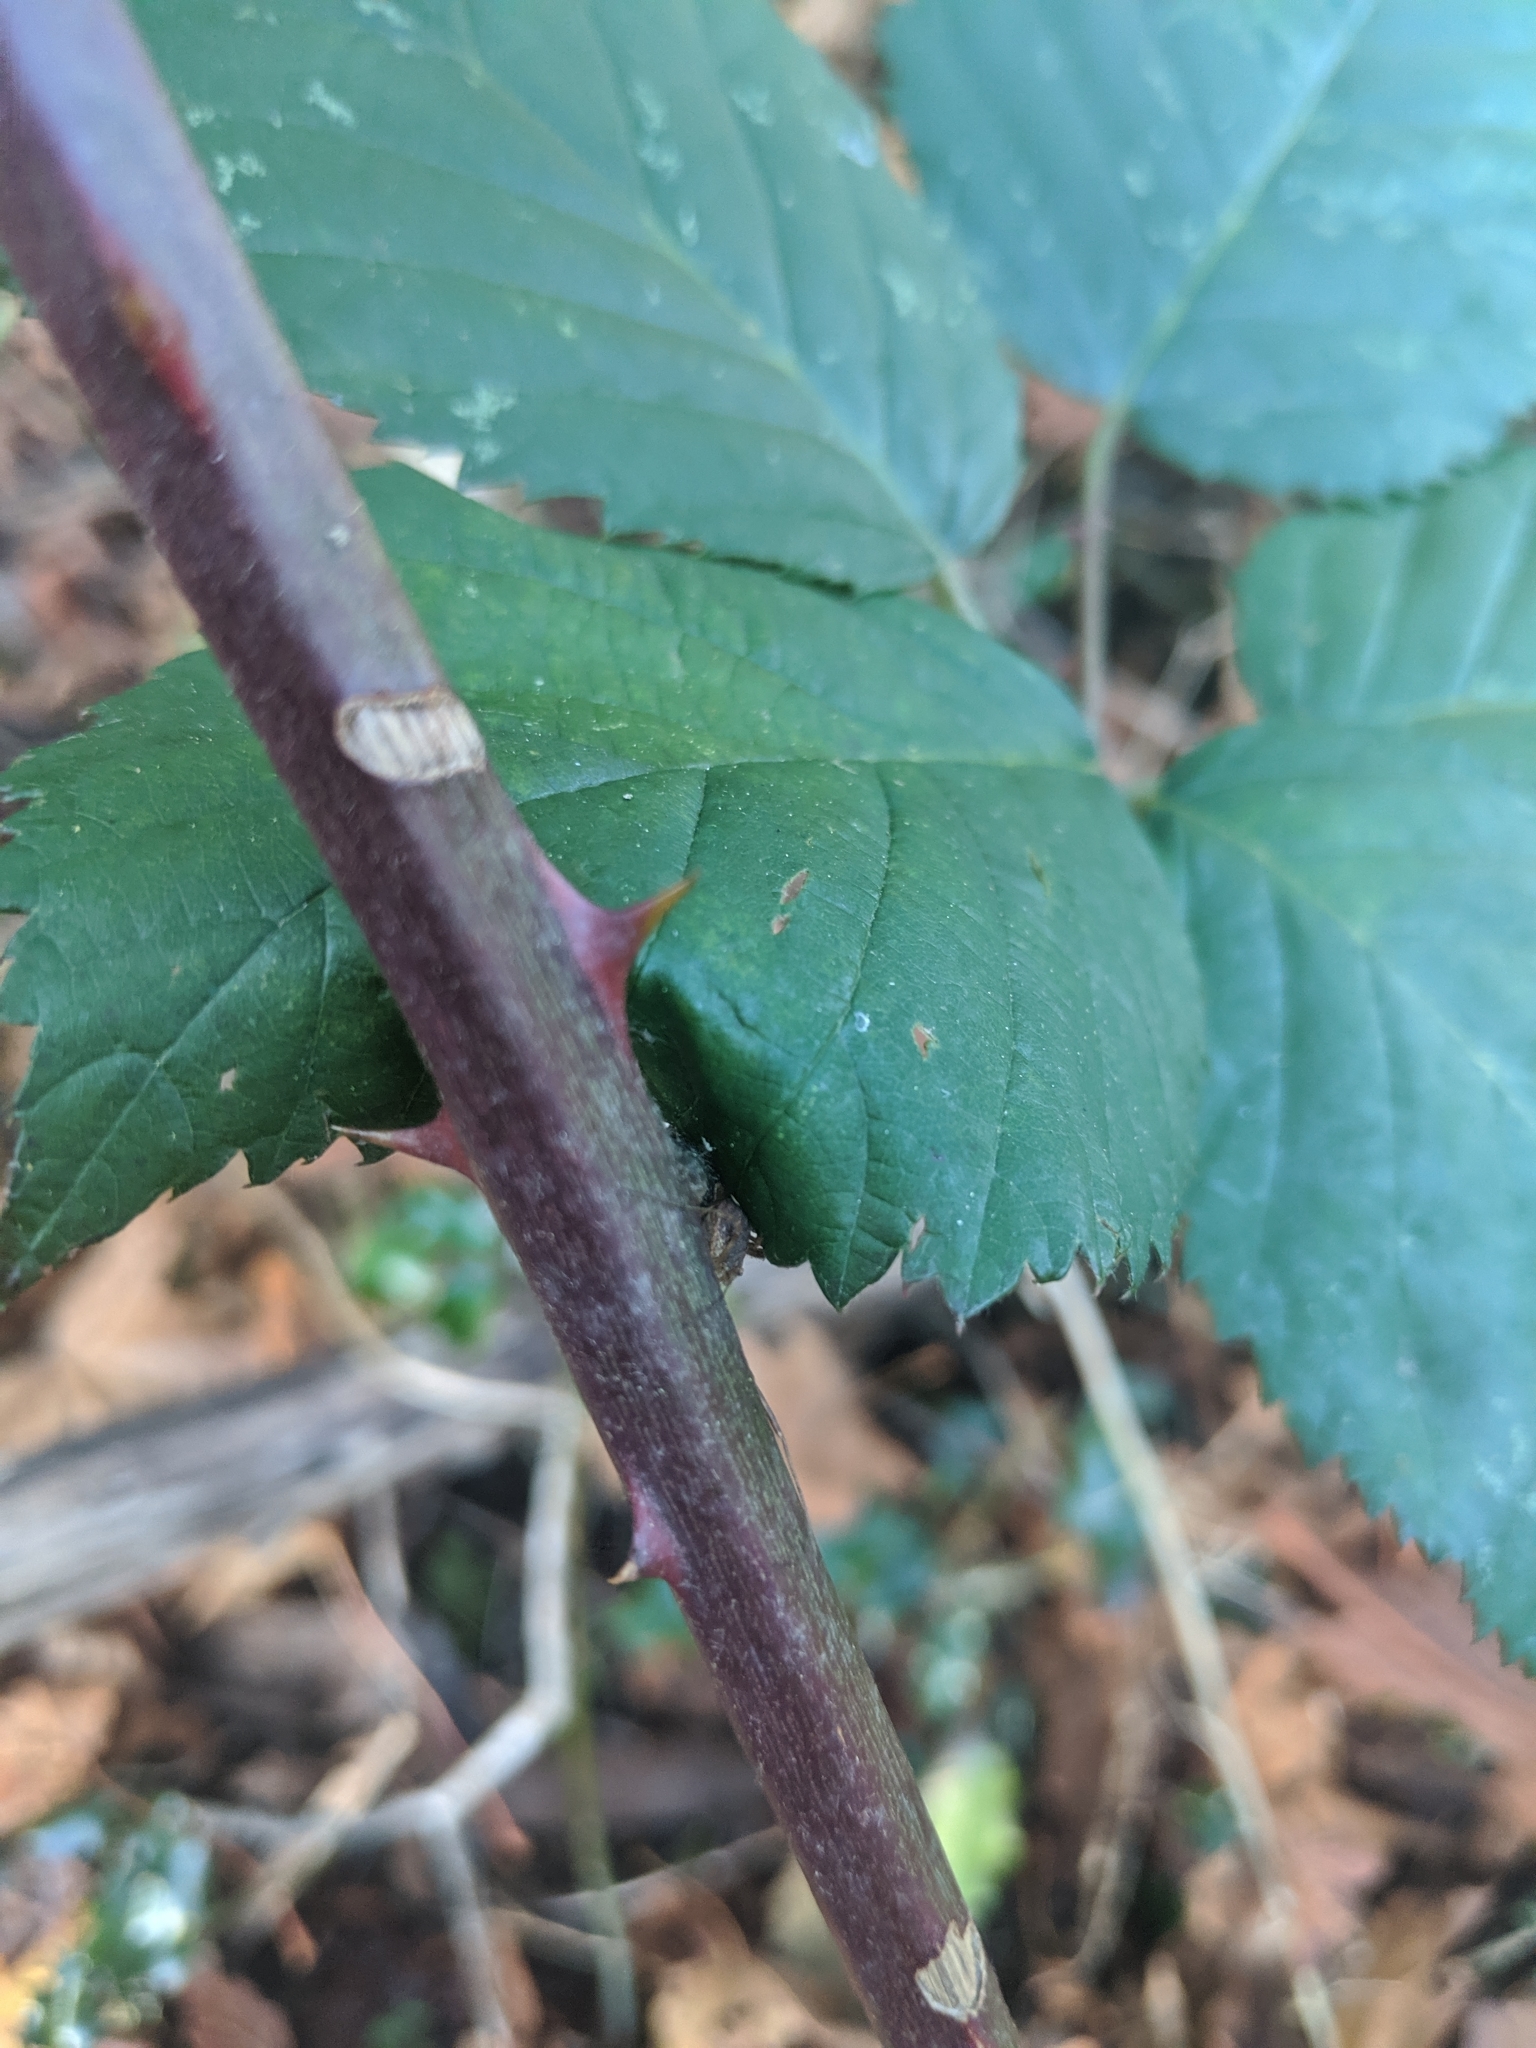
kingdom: Plantae
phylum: Tracheophyta
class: Magnoliopsida
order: Rosales
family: Rosaceae
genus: Rubus
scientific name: Rubus bifrons
